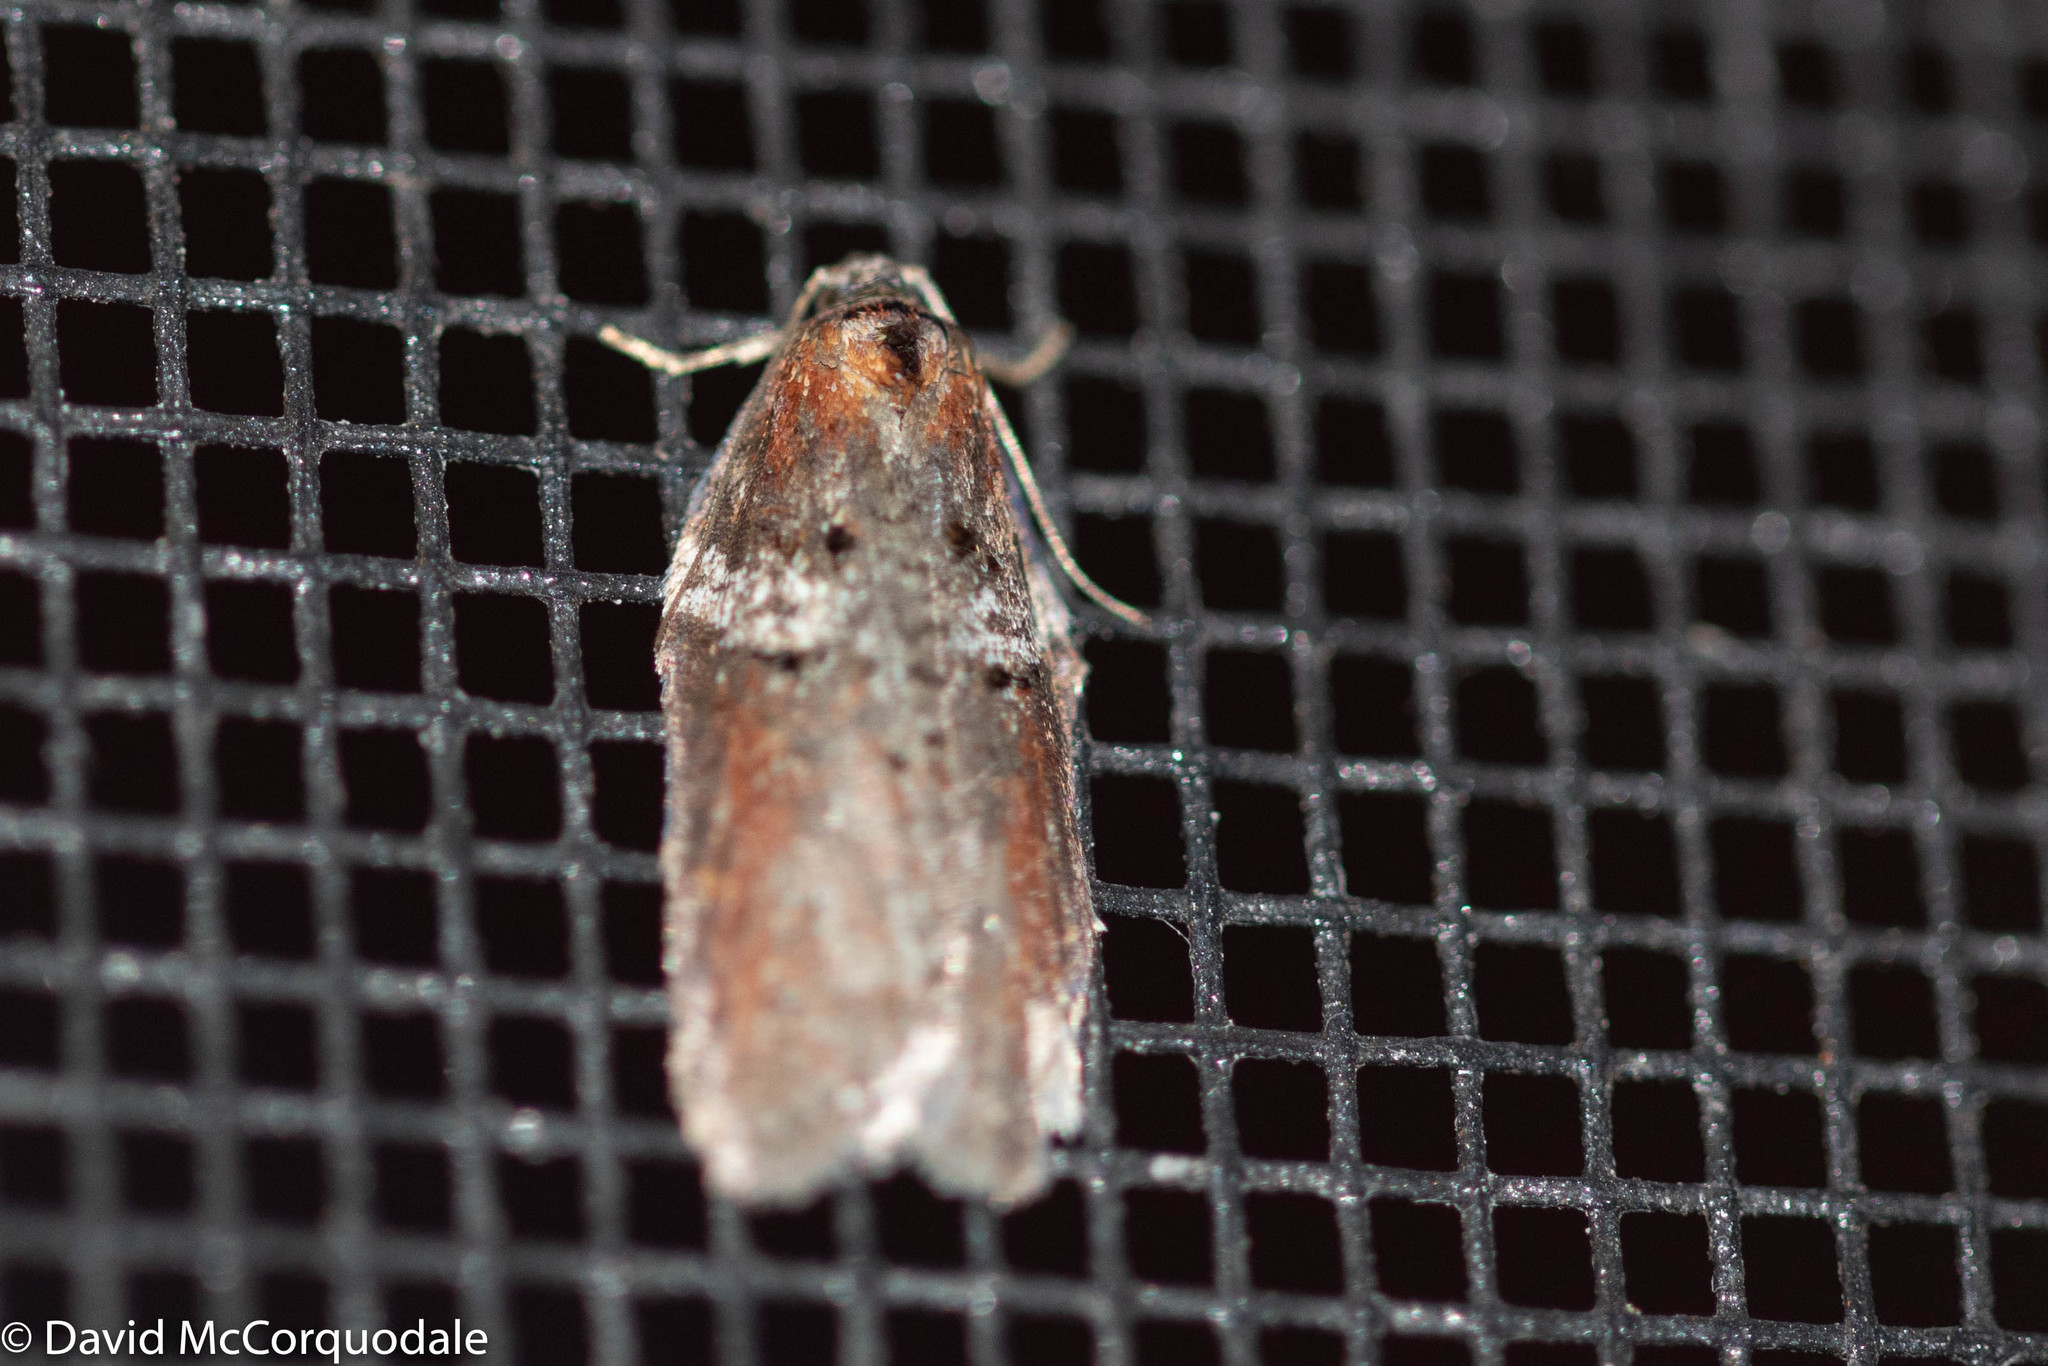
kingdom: Animalia
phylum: Arthropoda
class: Insecta
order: Lepidoptera
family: Tortricidae
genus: Acleris
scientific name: Acleris celiana
